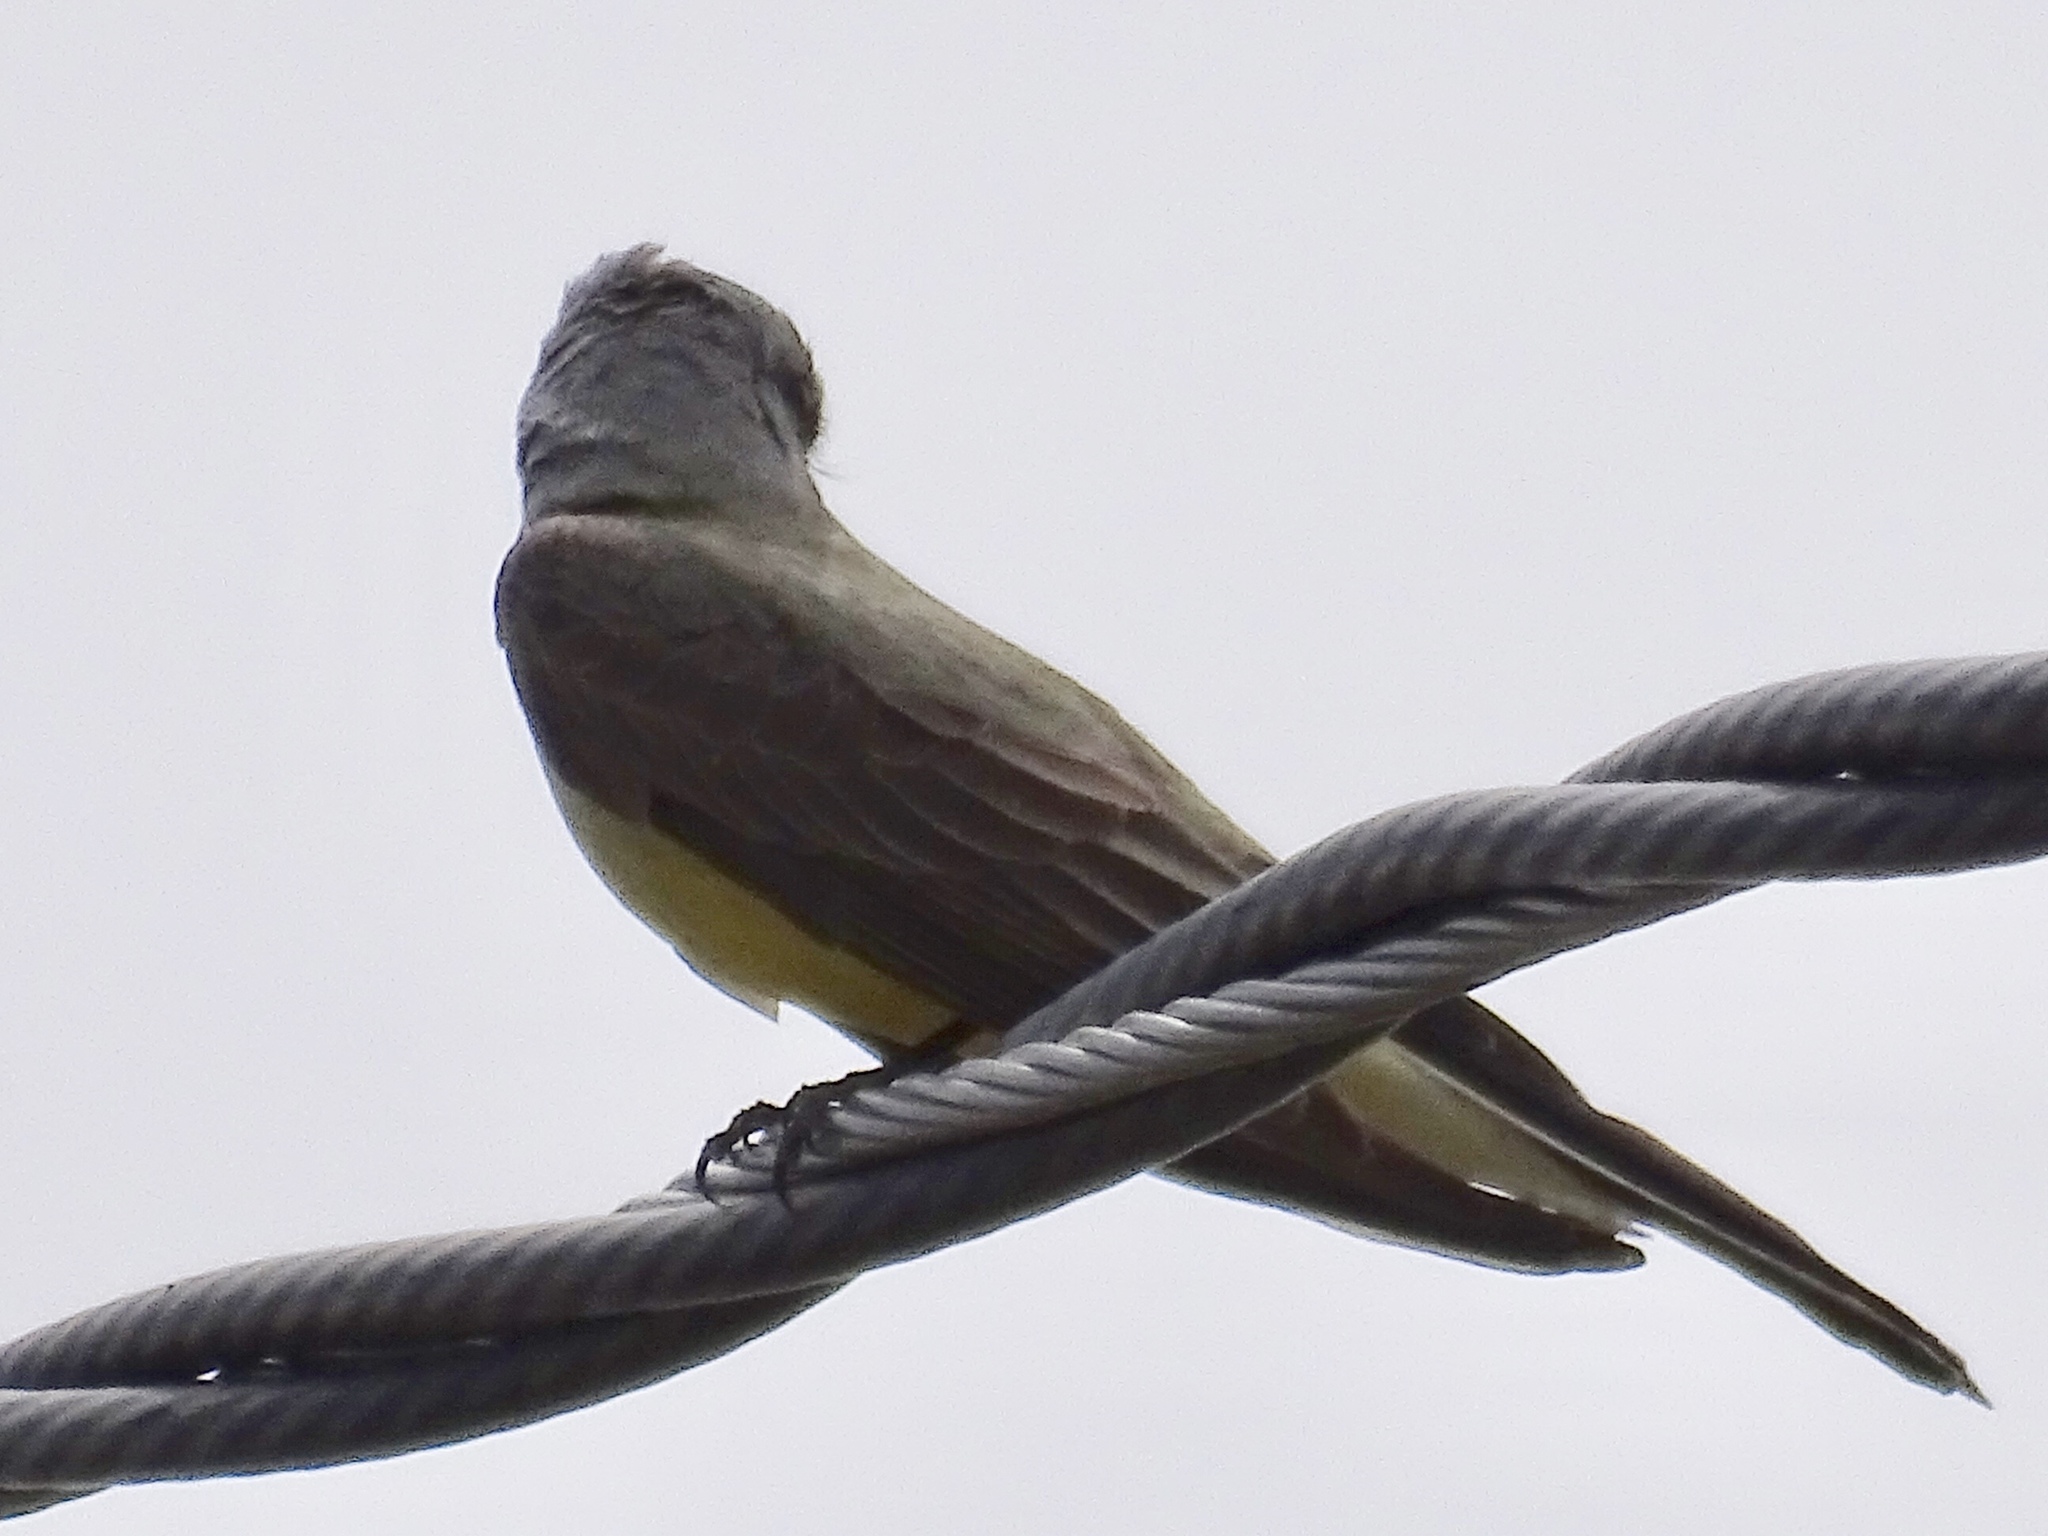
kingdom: Animalia
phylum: Chordata
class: Aves
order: Passeriformes
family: Tyrannidae
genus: Tyrannus
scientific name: Tyrannus verticalis
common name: Western kingbird
